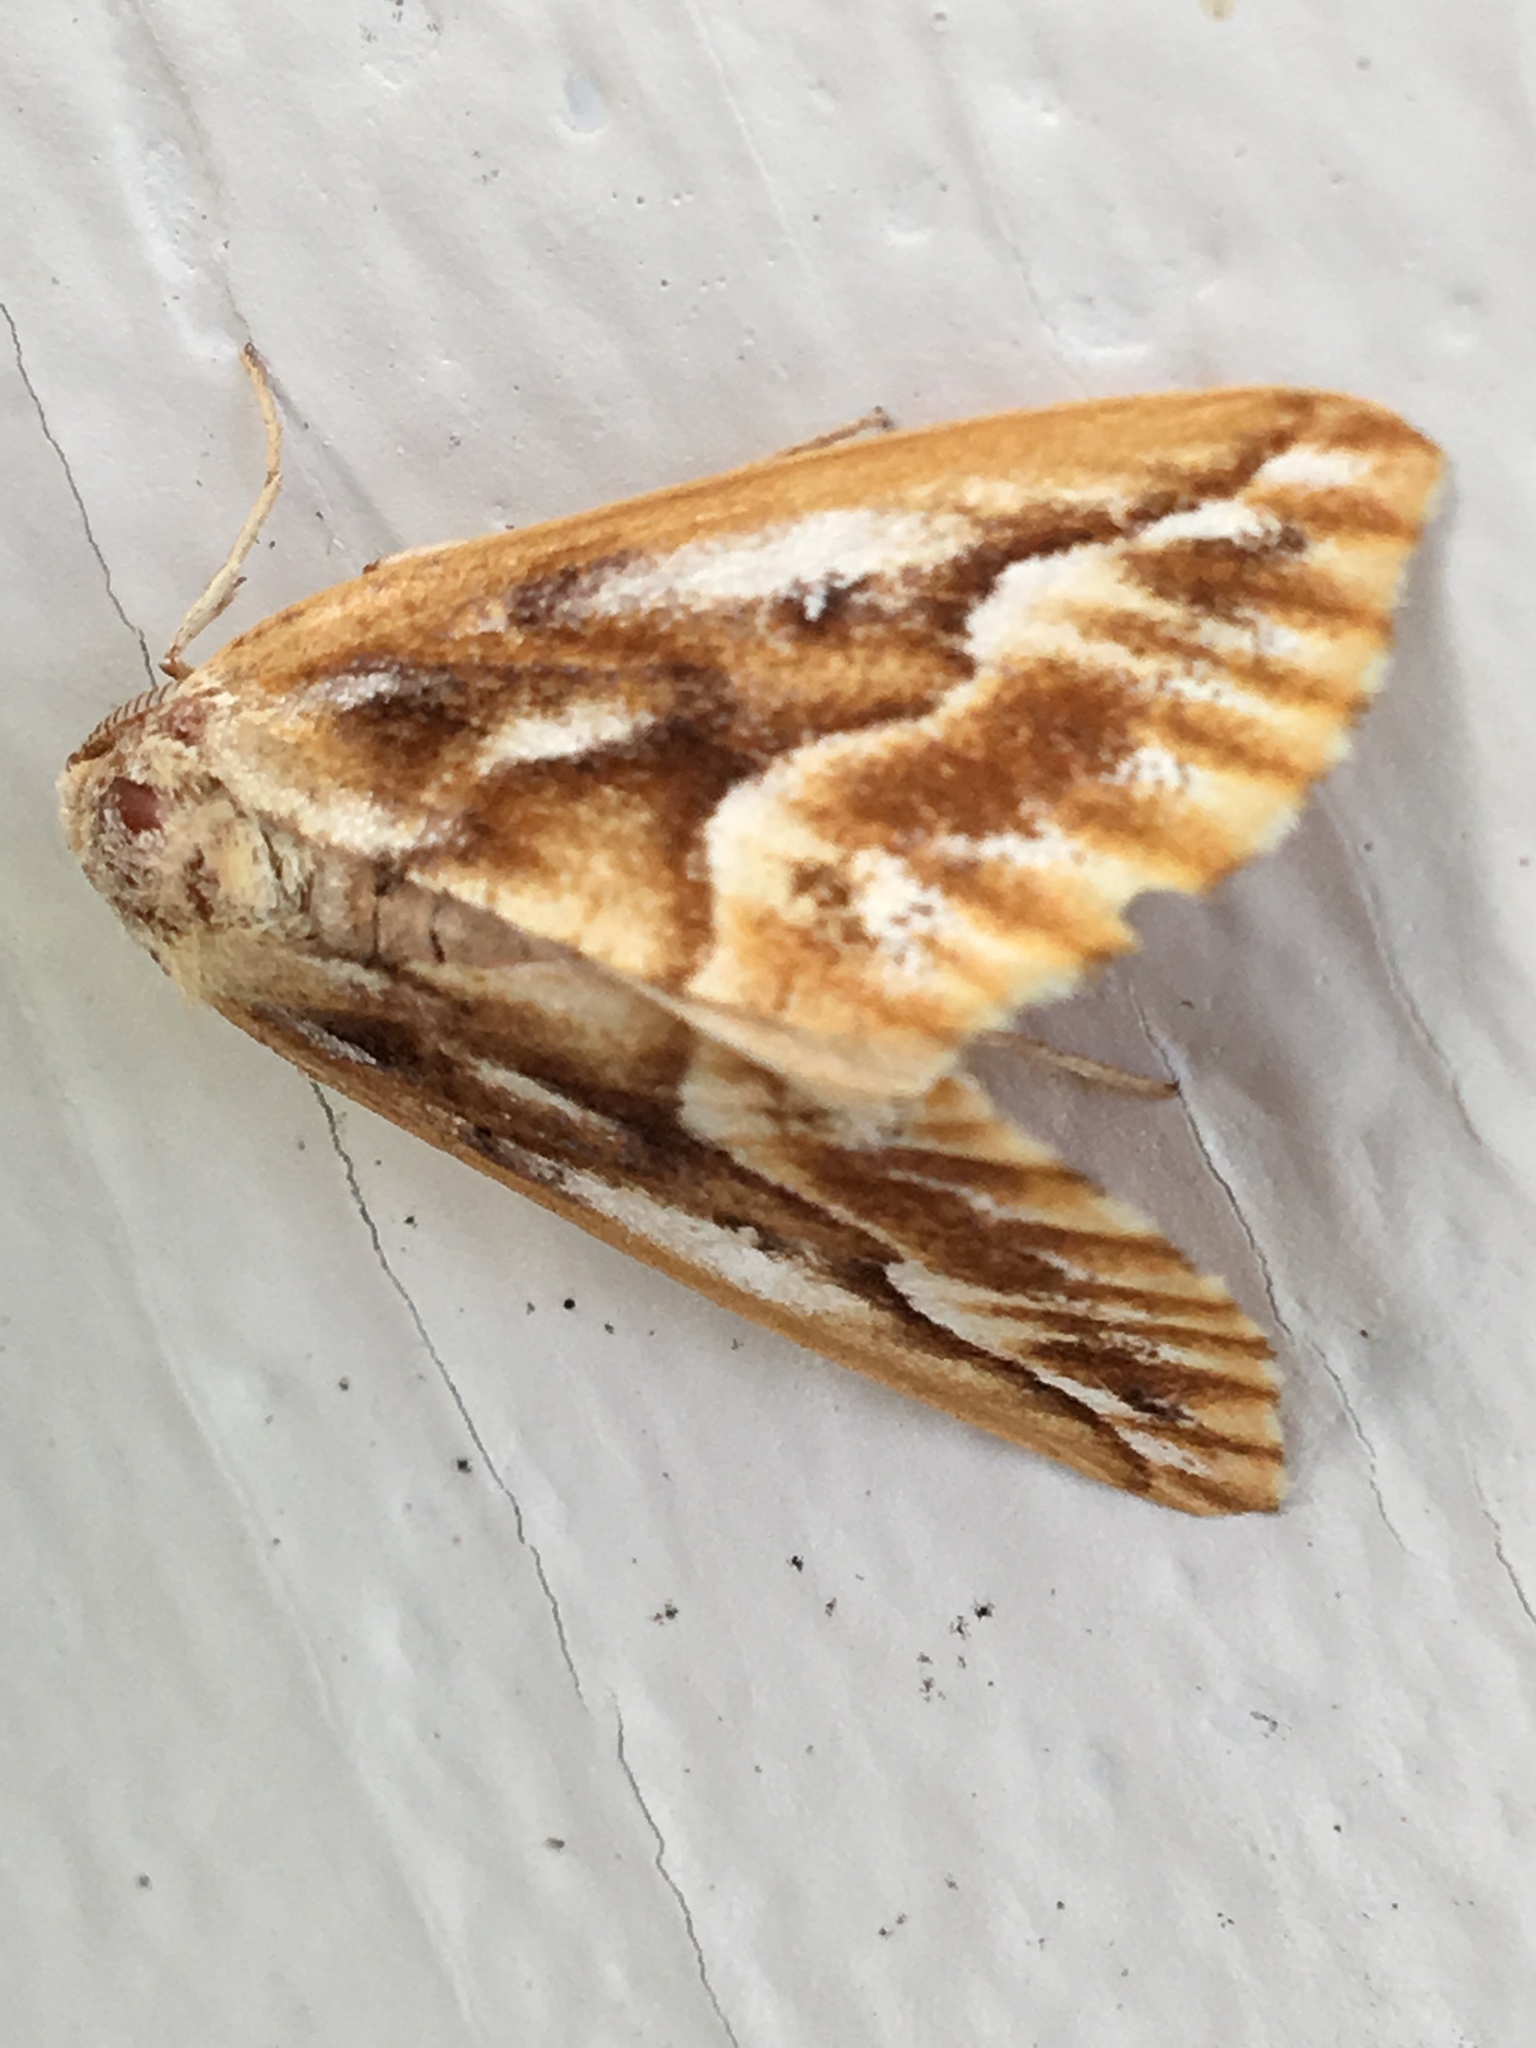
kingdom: Animalia
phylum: Arthropoda
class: Insecta
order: Lepidoptera
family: Geometridae
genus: Caripeta
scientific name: Caripeta piniata
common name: Northern pine looper moth
